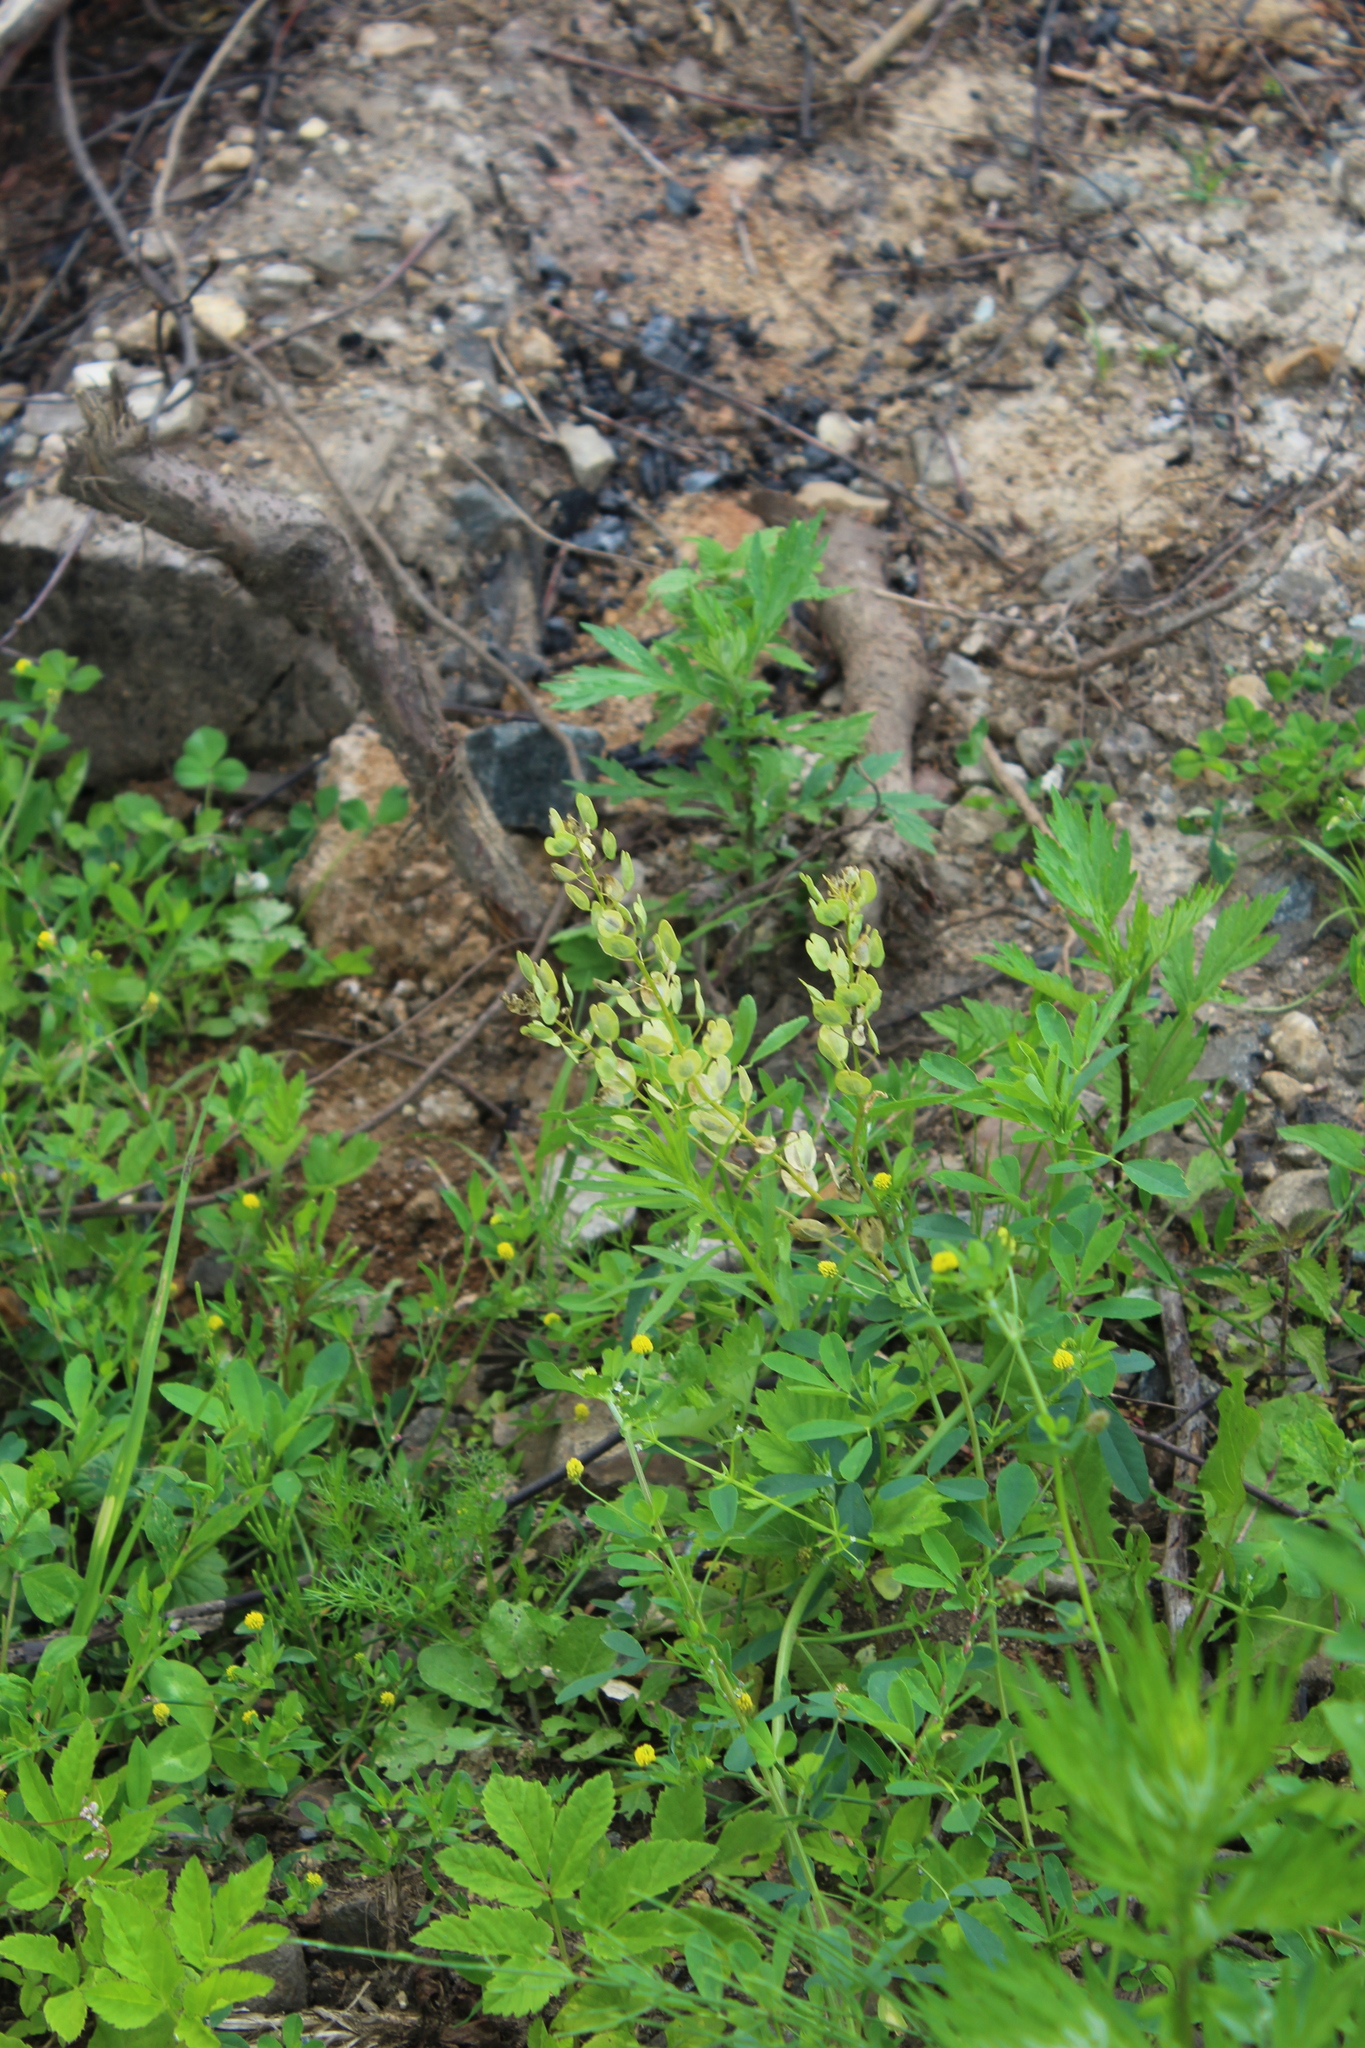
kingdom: Plantae
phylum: Tracheophyta
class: Magnoliopsida
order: Brassicales
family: Brassicaceae
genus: Thlaspi
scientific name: Thlaspi arvense
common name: Field pennycress
